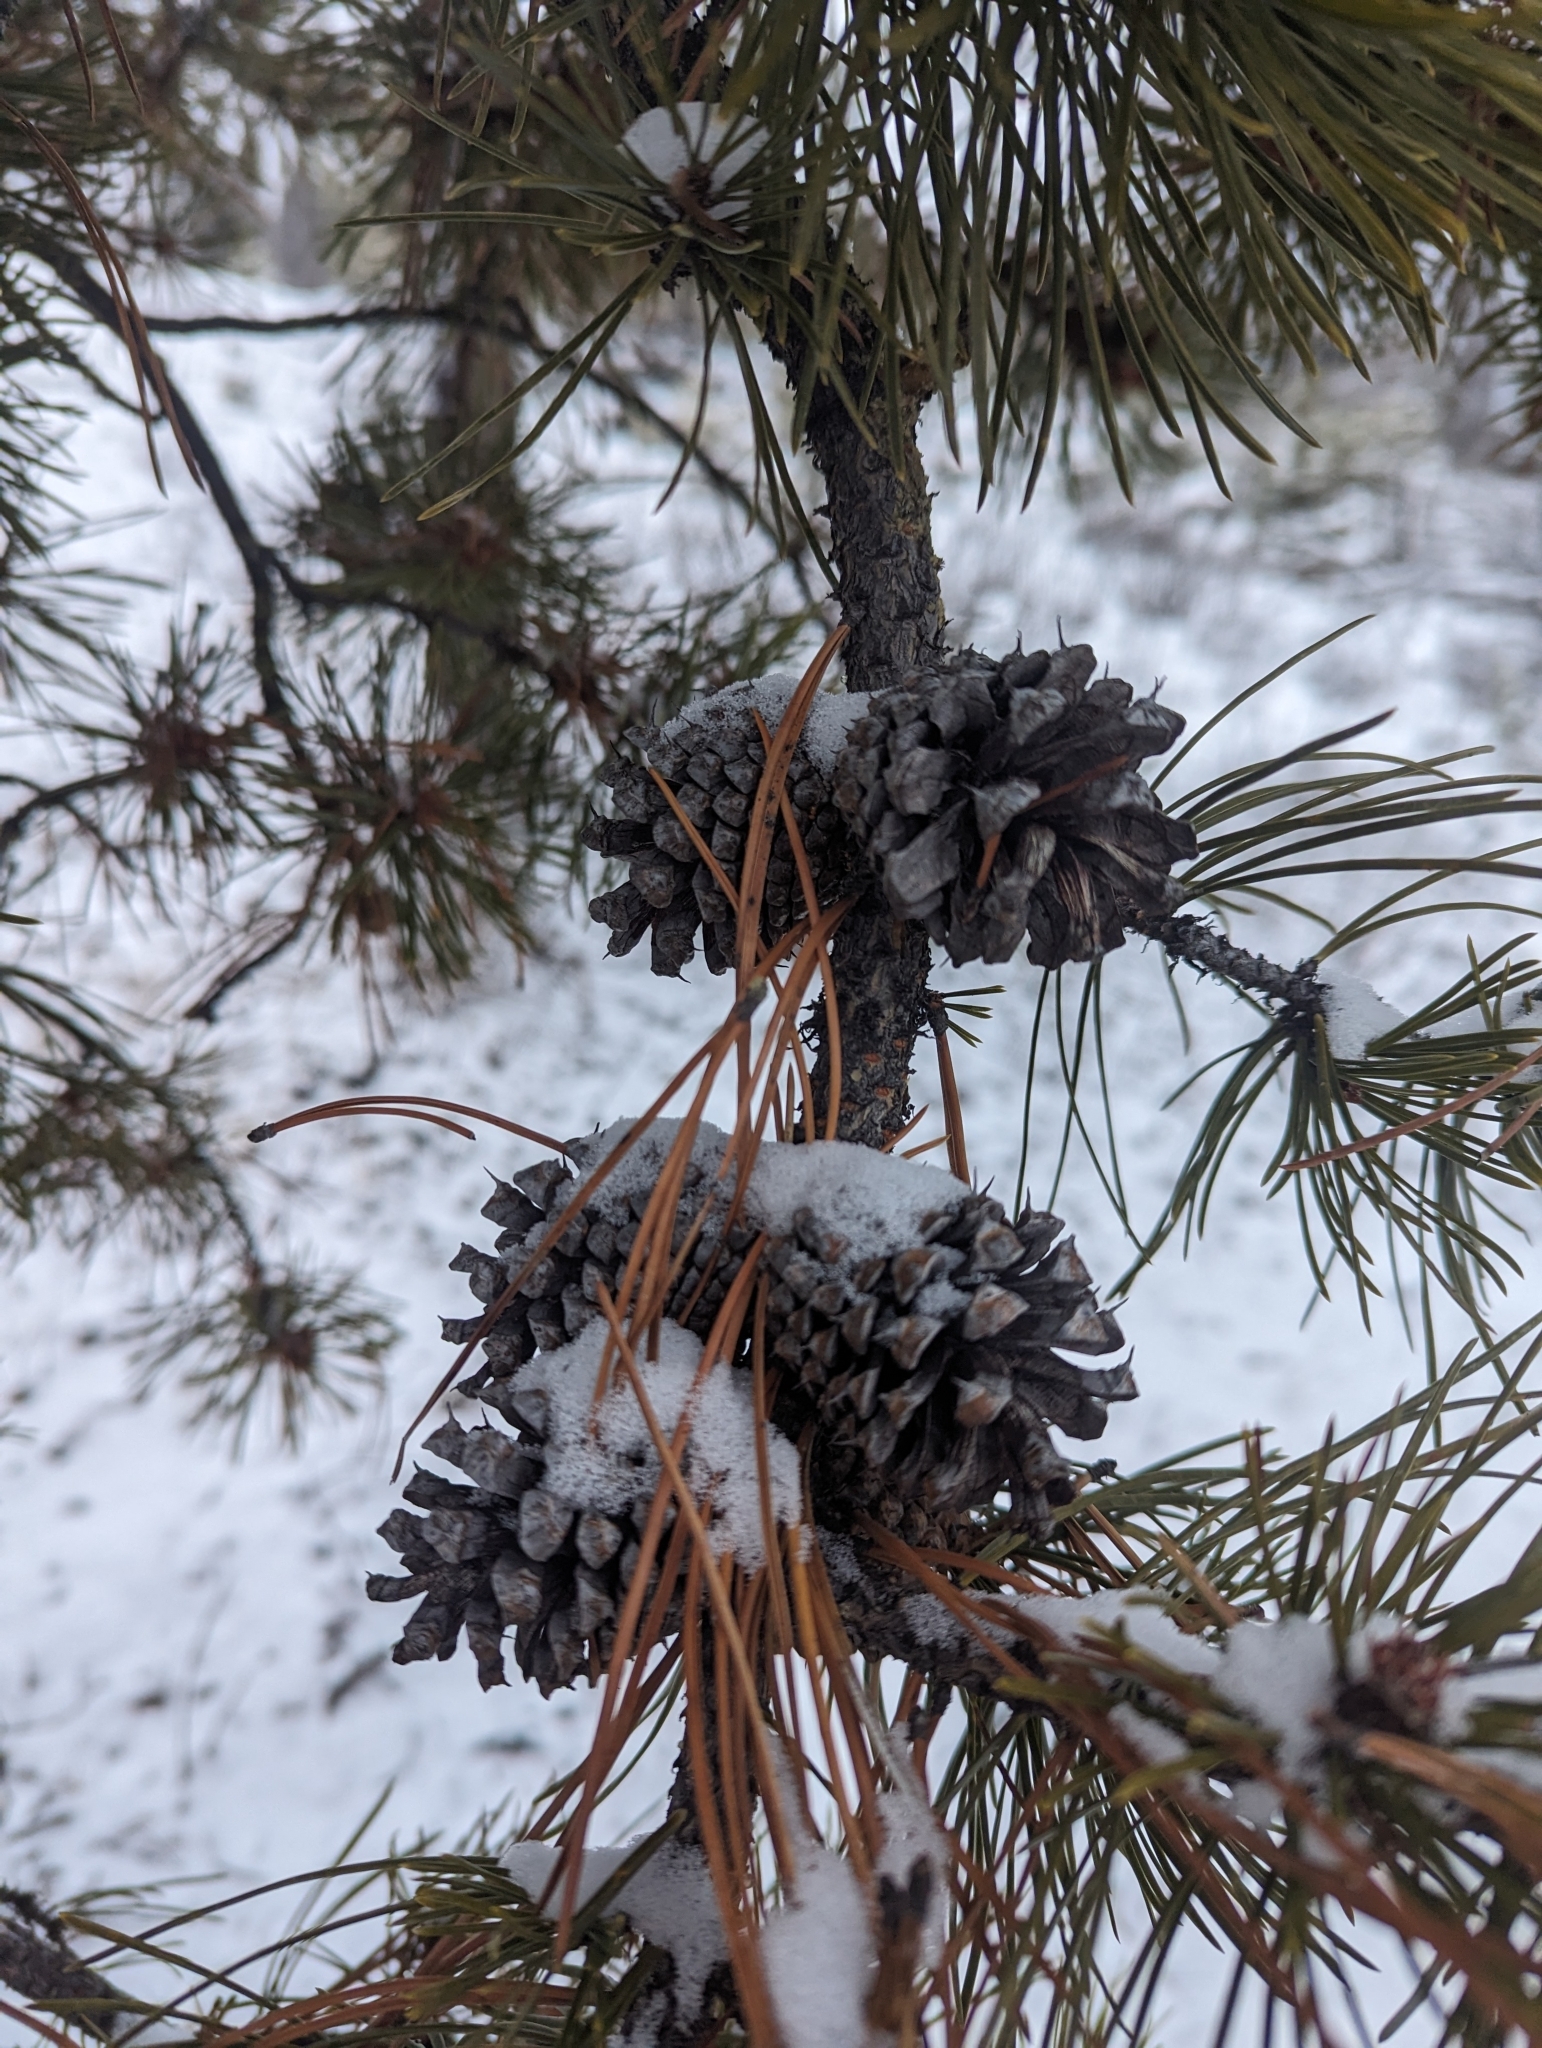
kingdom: Plantae
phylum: Tracheophyta
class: Pinopsida
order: Pinales
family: Pinaceae
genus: Pinus
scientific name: Pinus contorta
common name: Lodgepole pine
